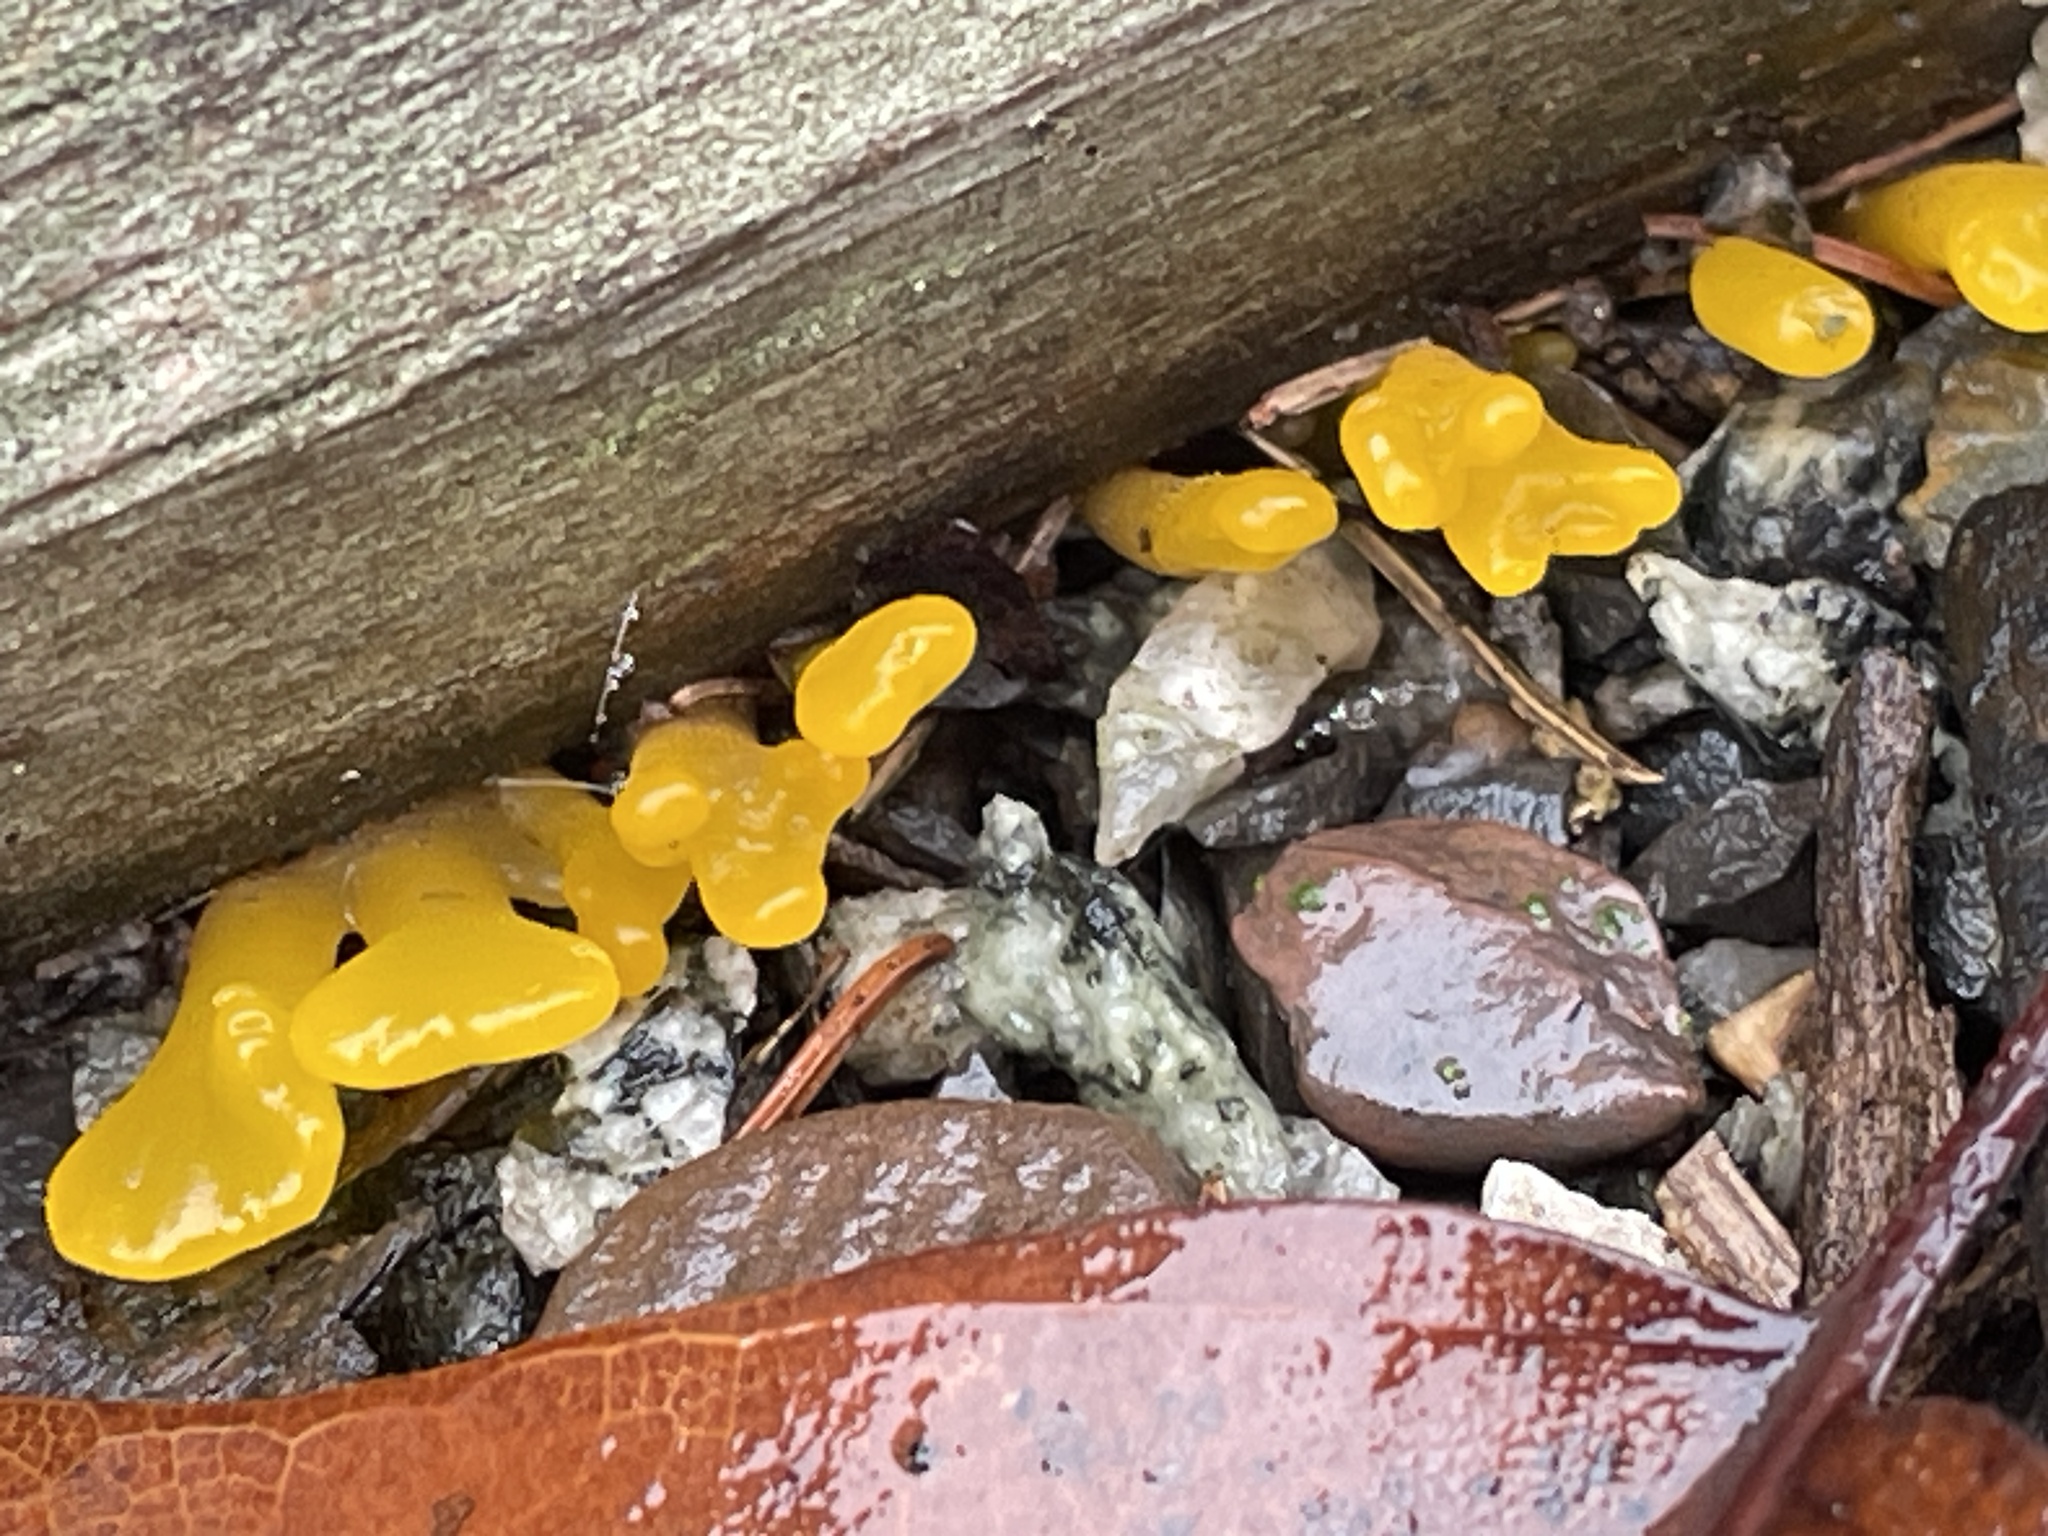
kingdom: Fungi
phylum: Basidiomycota
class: Dacrymycetes
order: Dacrymycetales
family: Dacrymycetaceae
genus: Dacrymyces
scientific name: Dacrymyces spathularius
